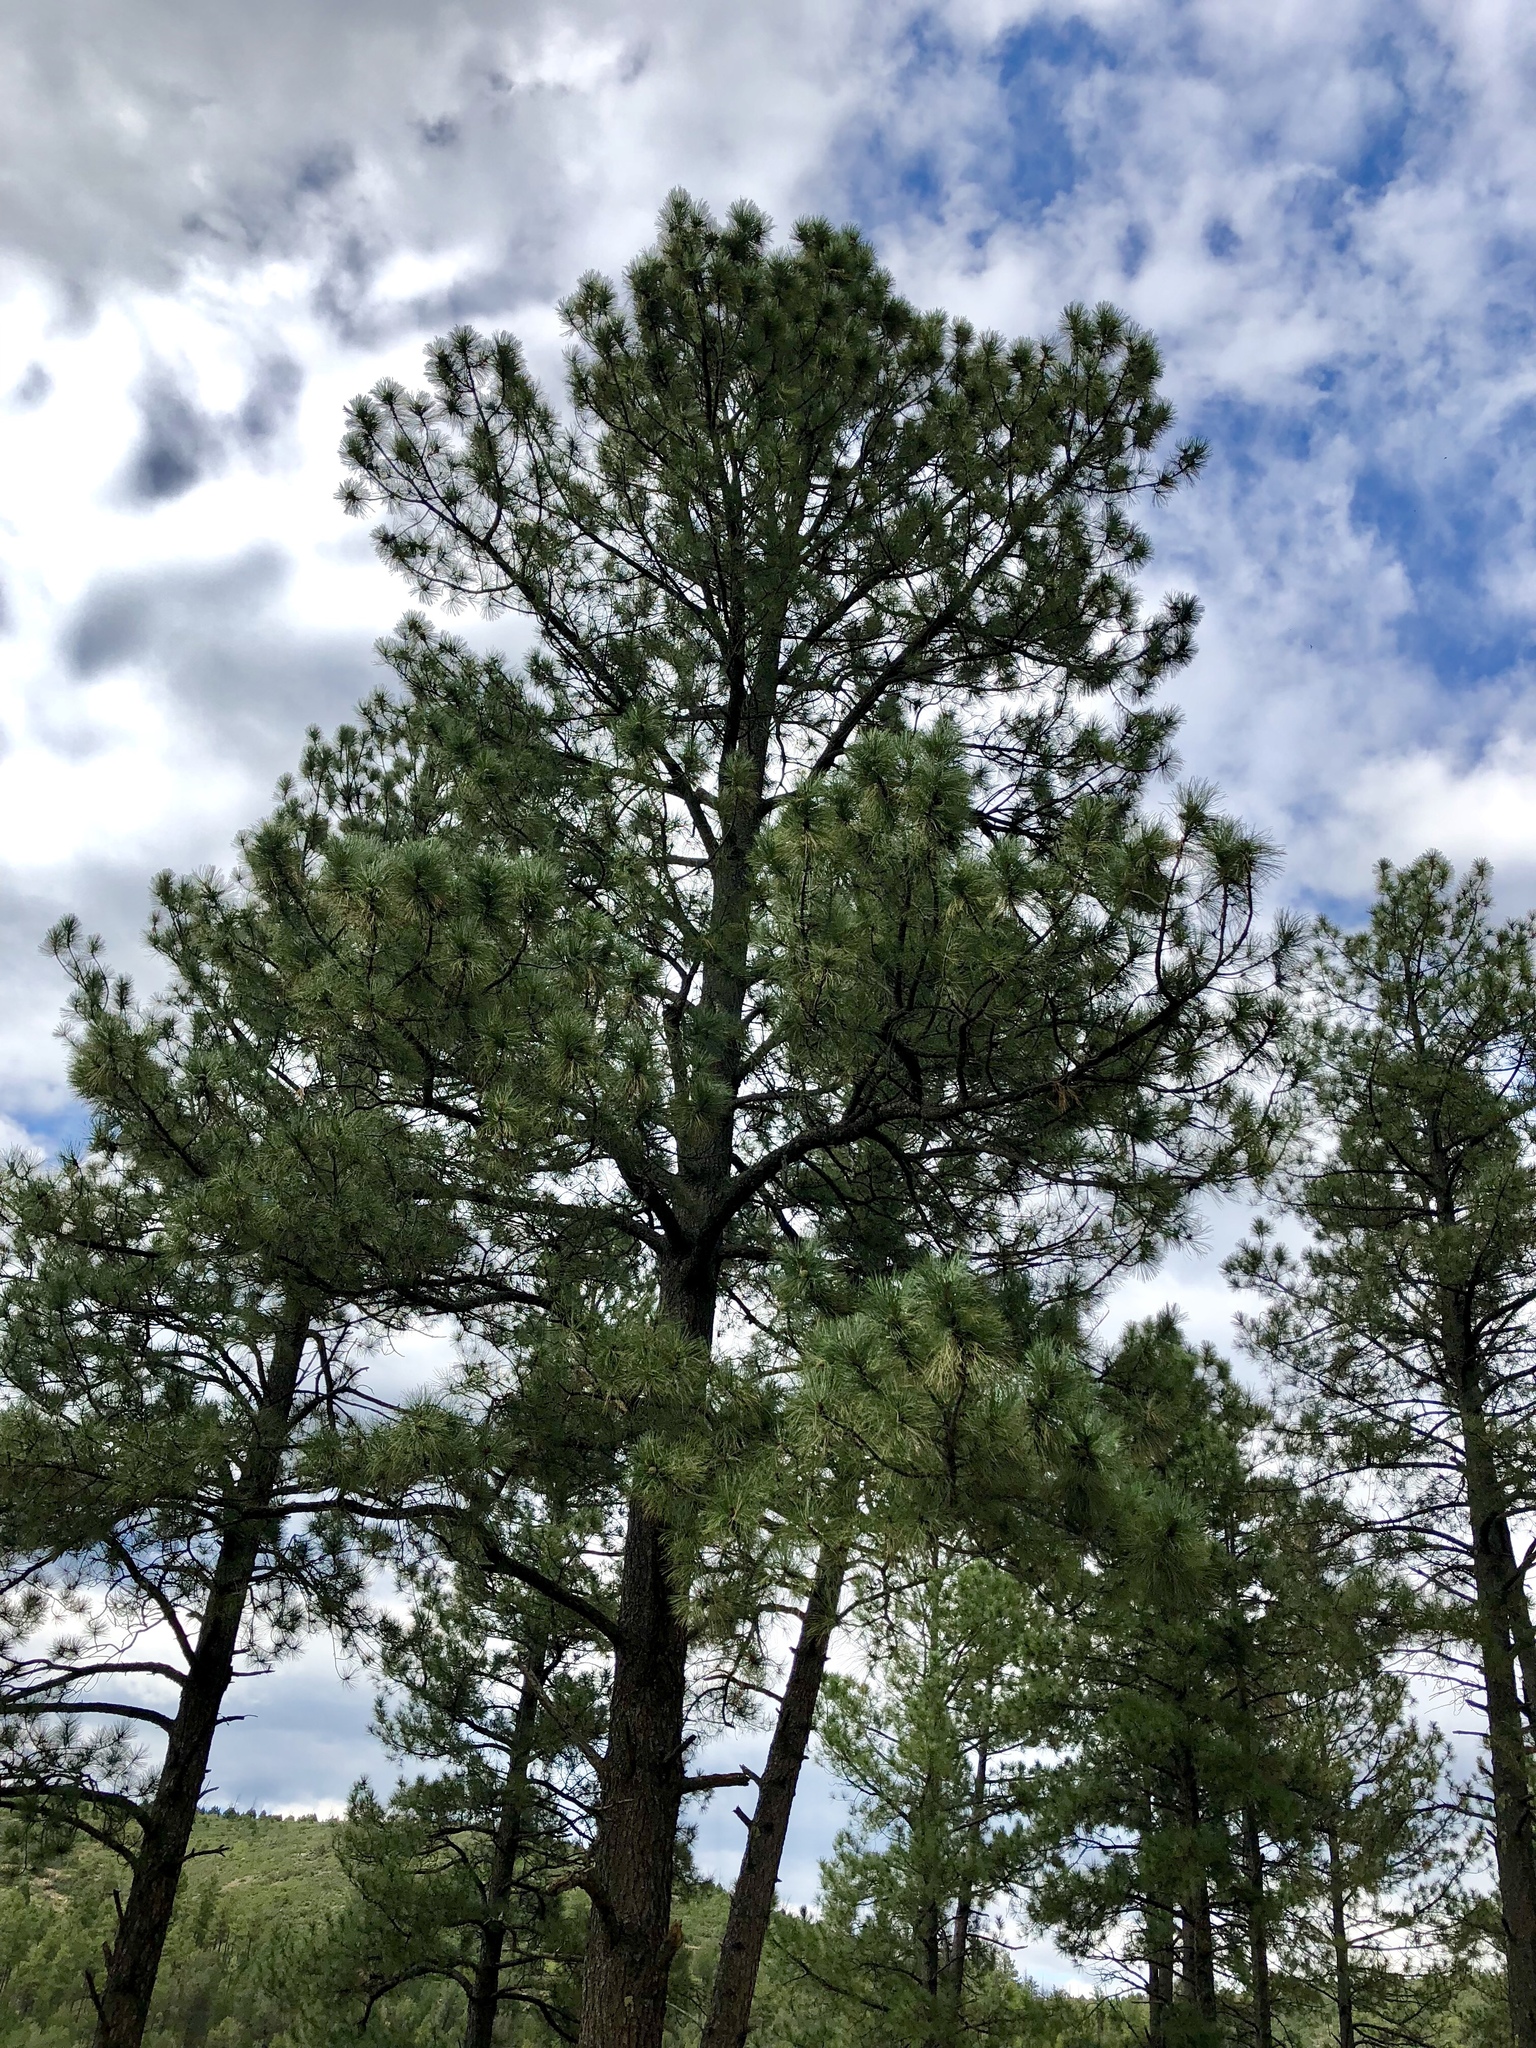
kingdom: Plantae
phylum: Tracheophyta
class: Pinopsida
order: Pinales
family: Pinaceae
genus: Pinus
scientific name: Pinus ponderosa
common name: Western yellow-pine
